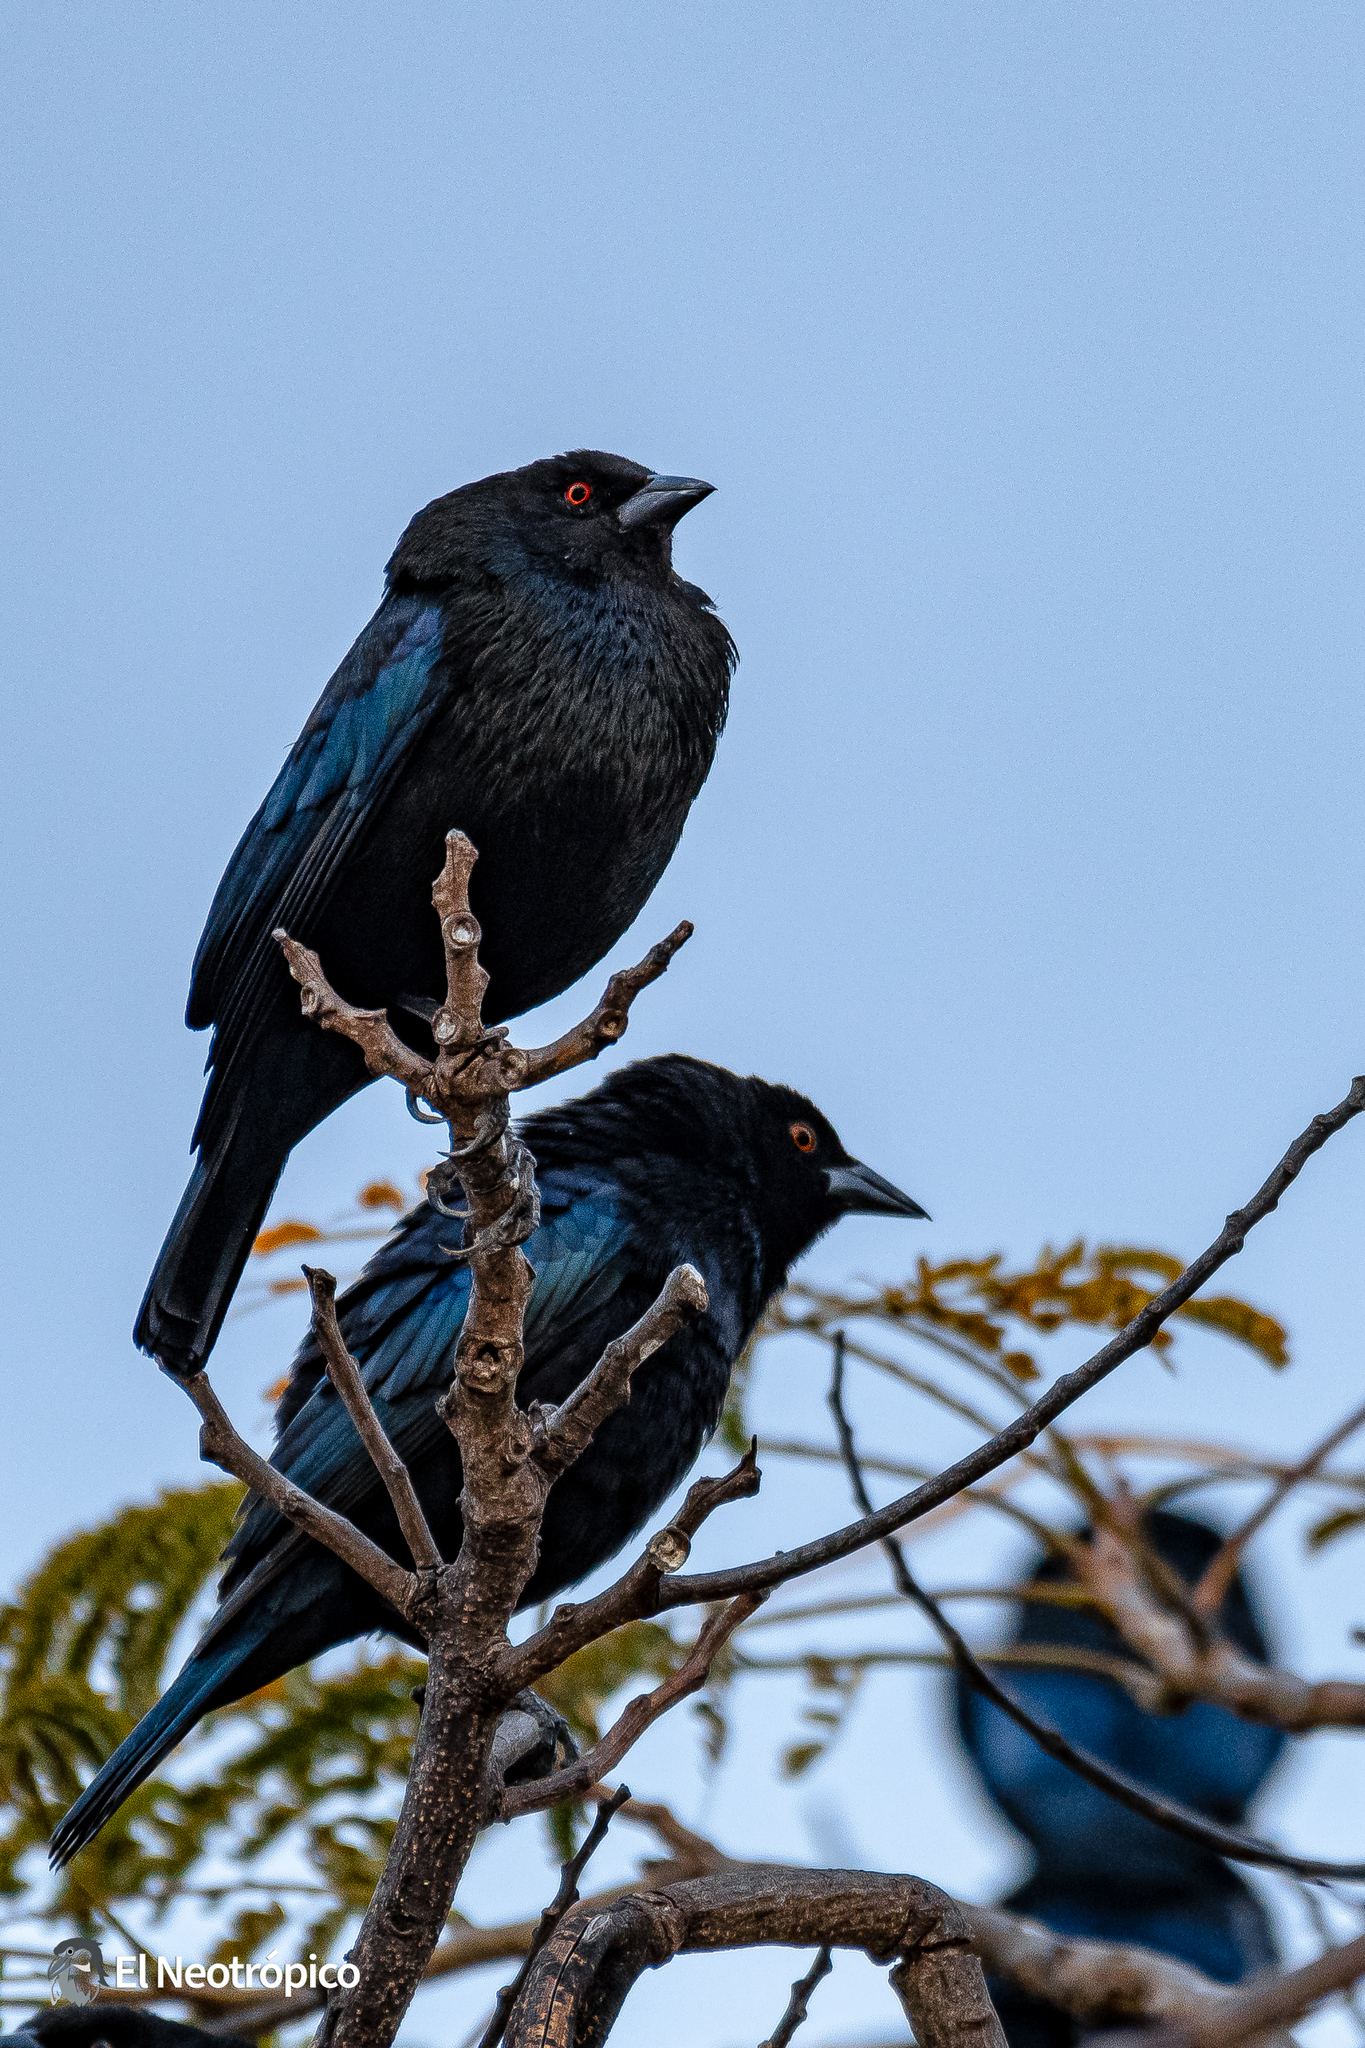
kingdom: Animalia
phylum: Chordata
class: Aves
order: Passeriformes
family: Icteridae
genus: Molothrus
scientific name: Molothrus aeneus
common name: Bronzed cowbird
